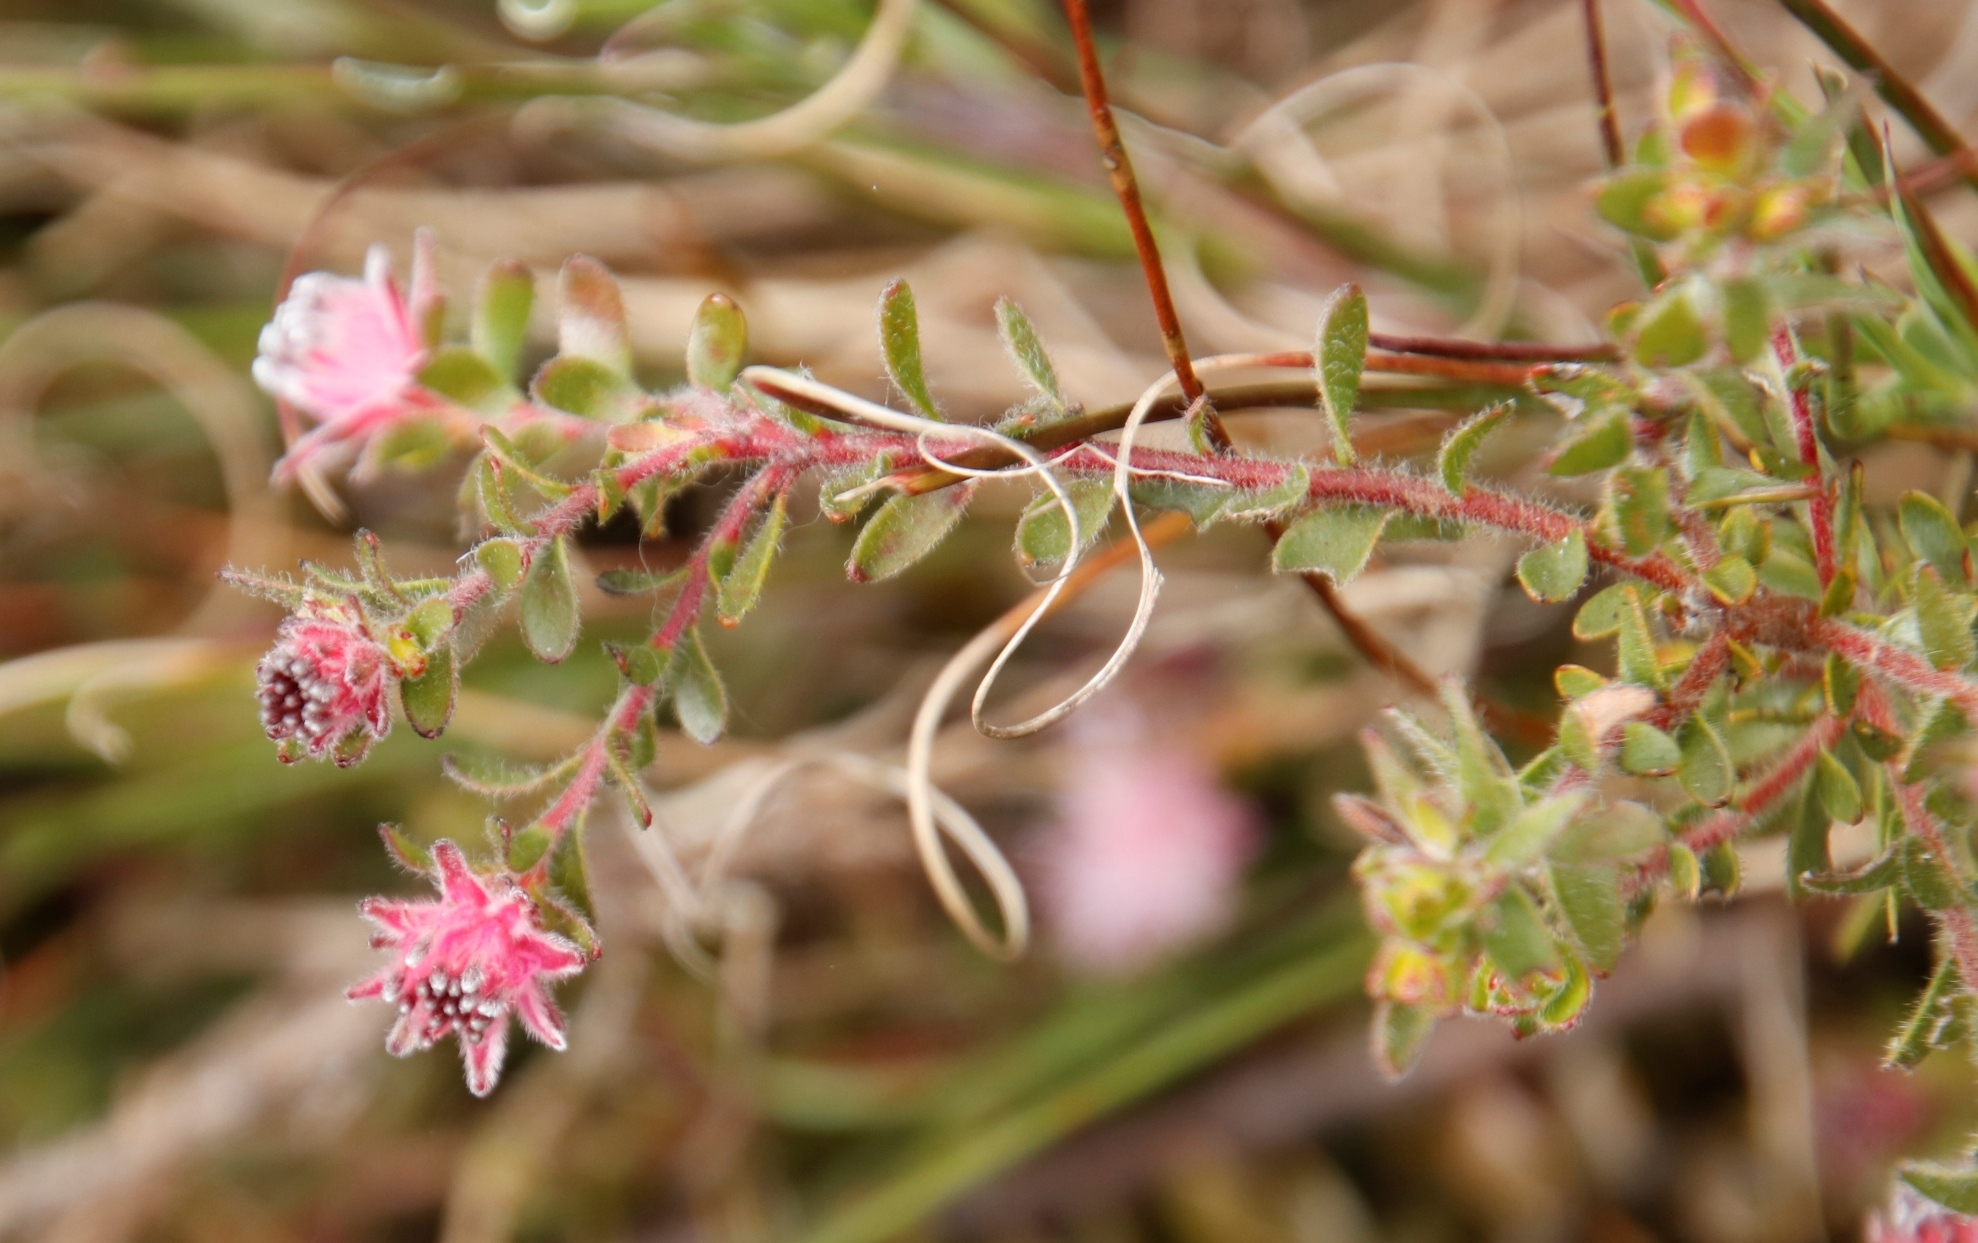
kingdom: Plantae
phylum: Tracheophyta
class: Magnoliopsida
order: Proteales
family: Proteaceae
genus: Diastella
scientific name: Diastella divaricata
